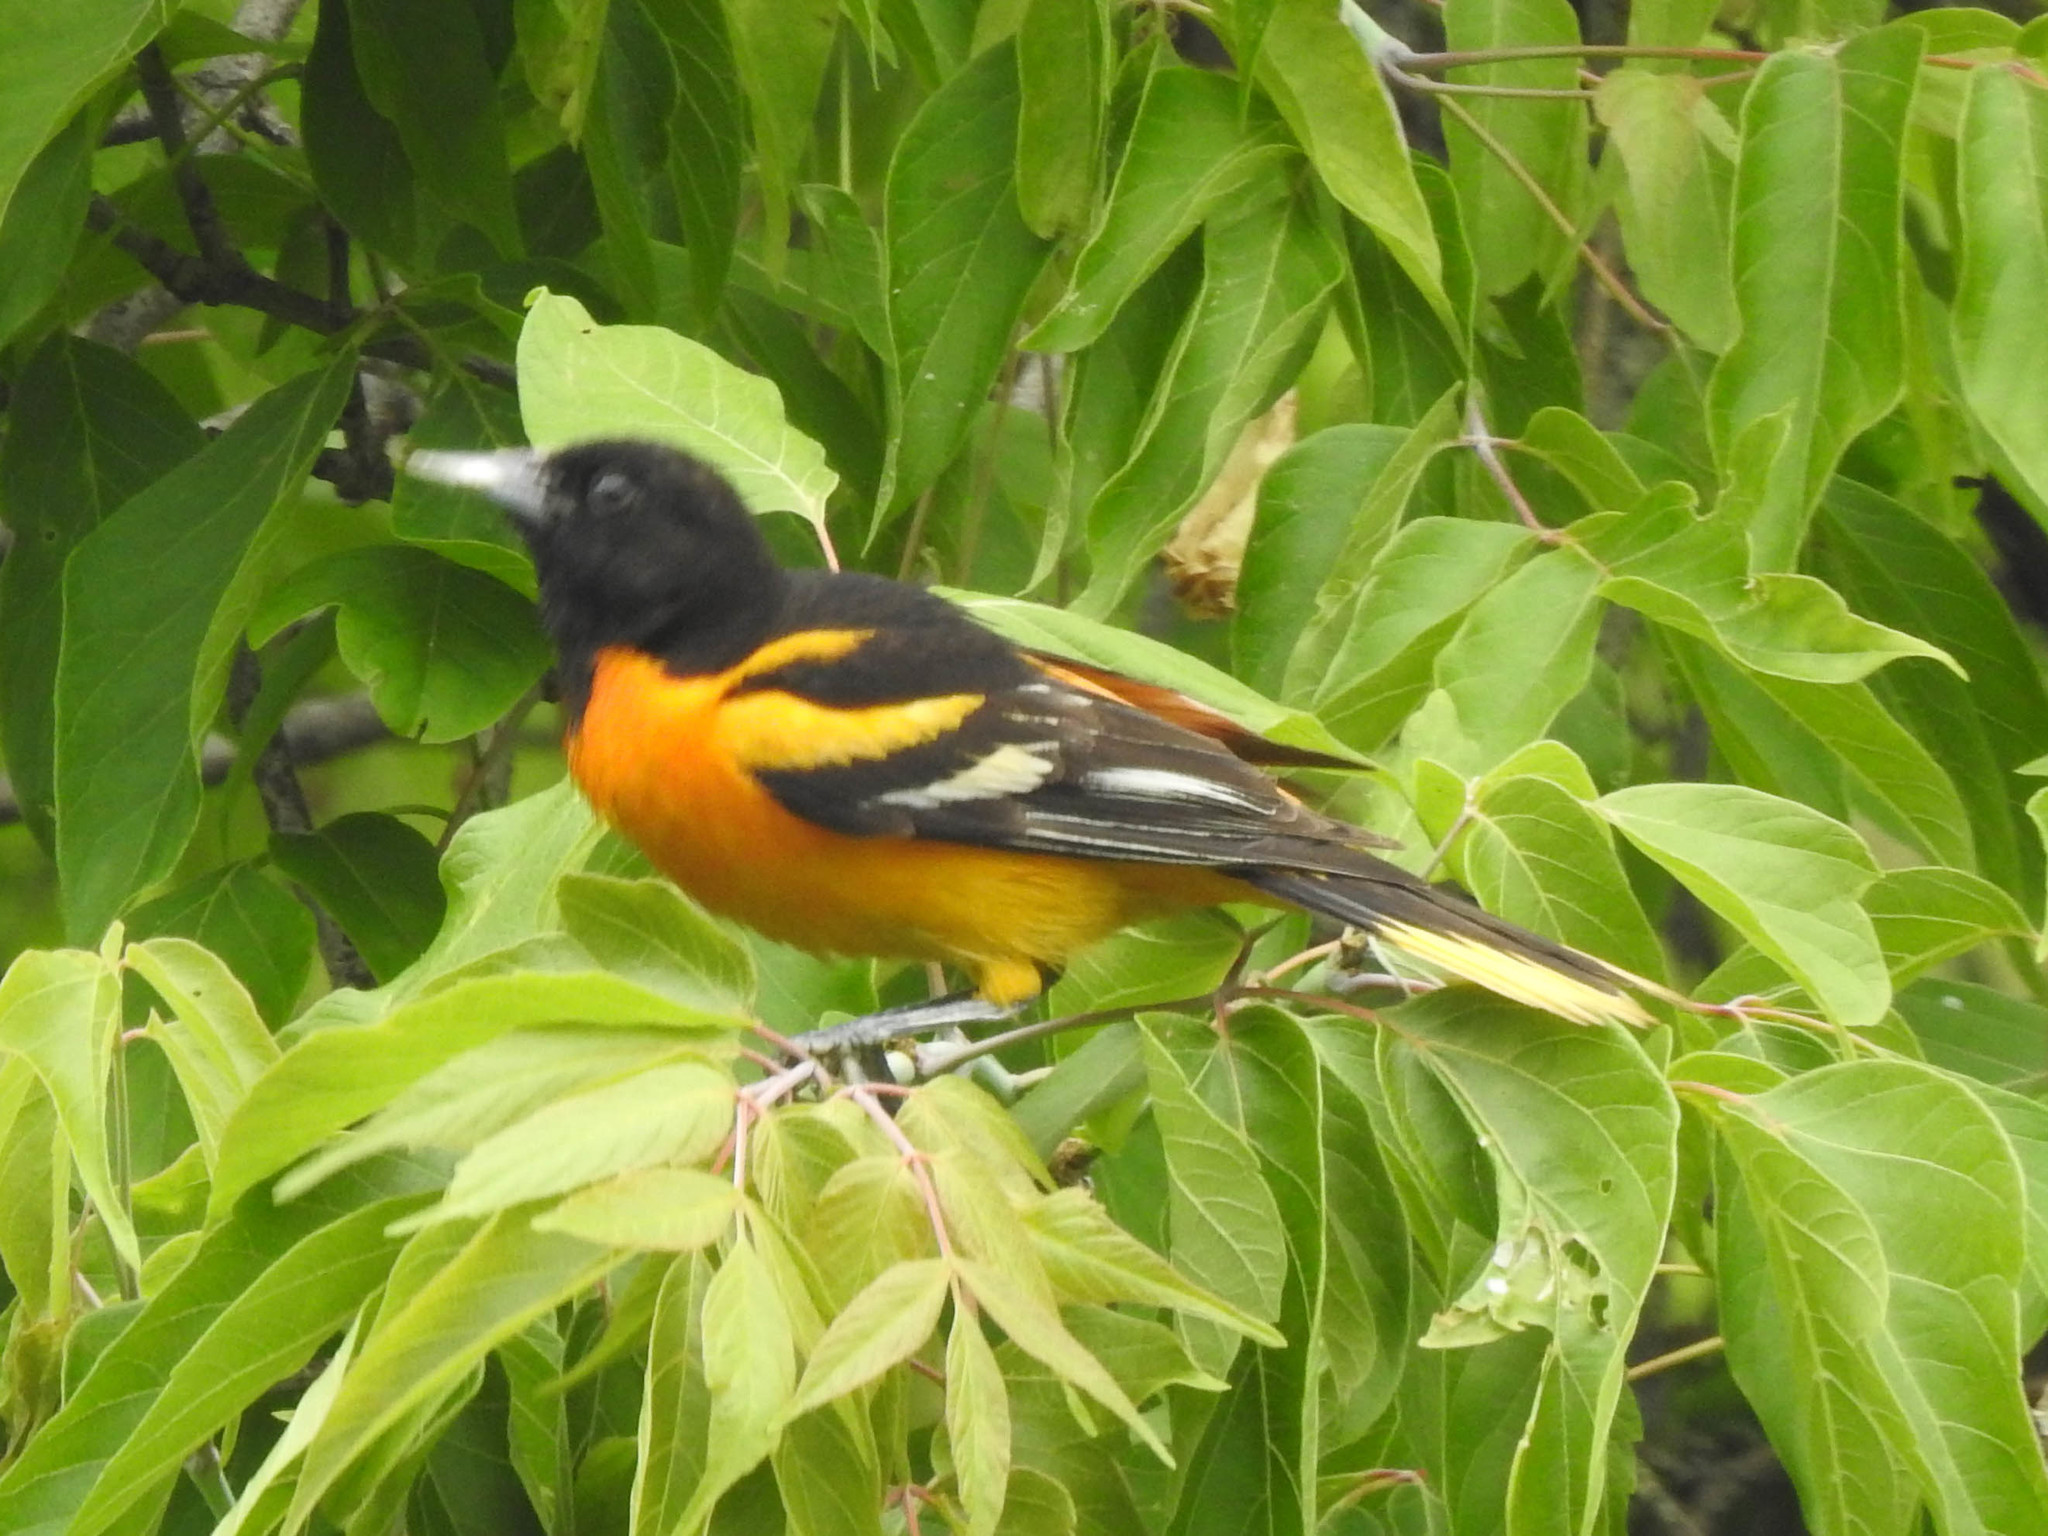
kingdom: Animalia
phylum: Chordata
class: Aves
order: Passeriformes
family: Icteridae
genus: Icterus
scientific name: Icterus galbula
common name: Baltimore oriole
